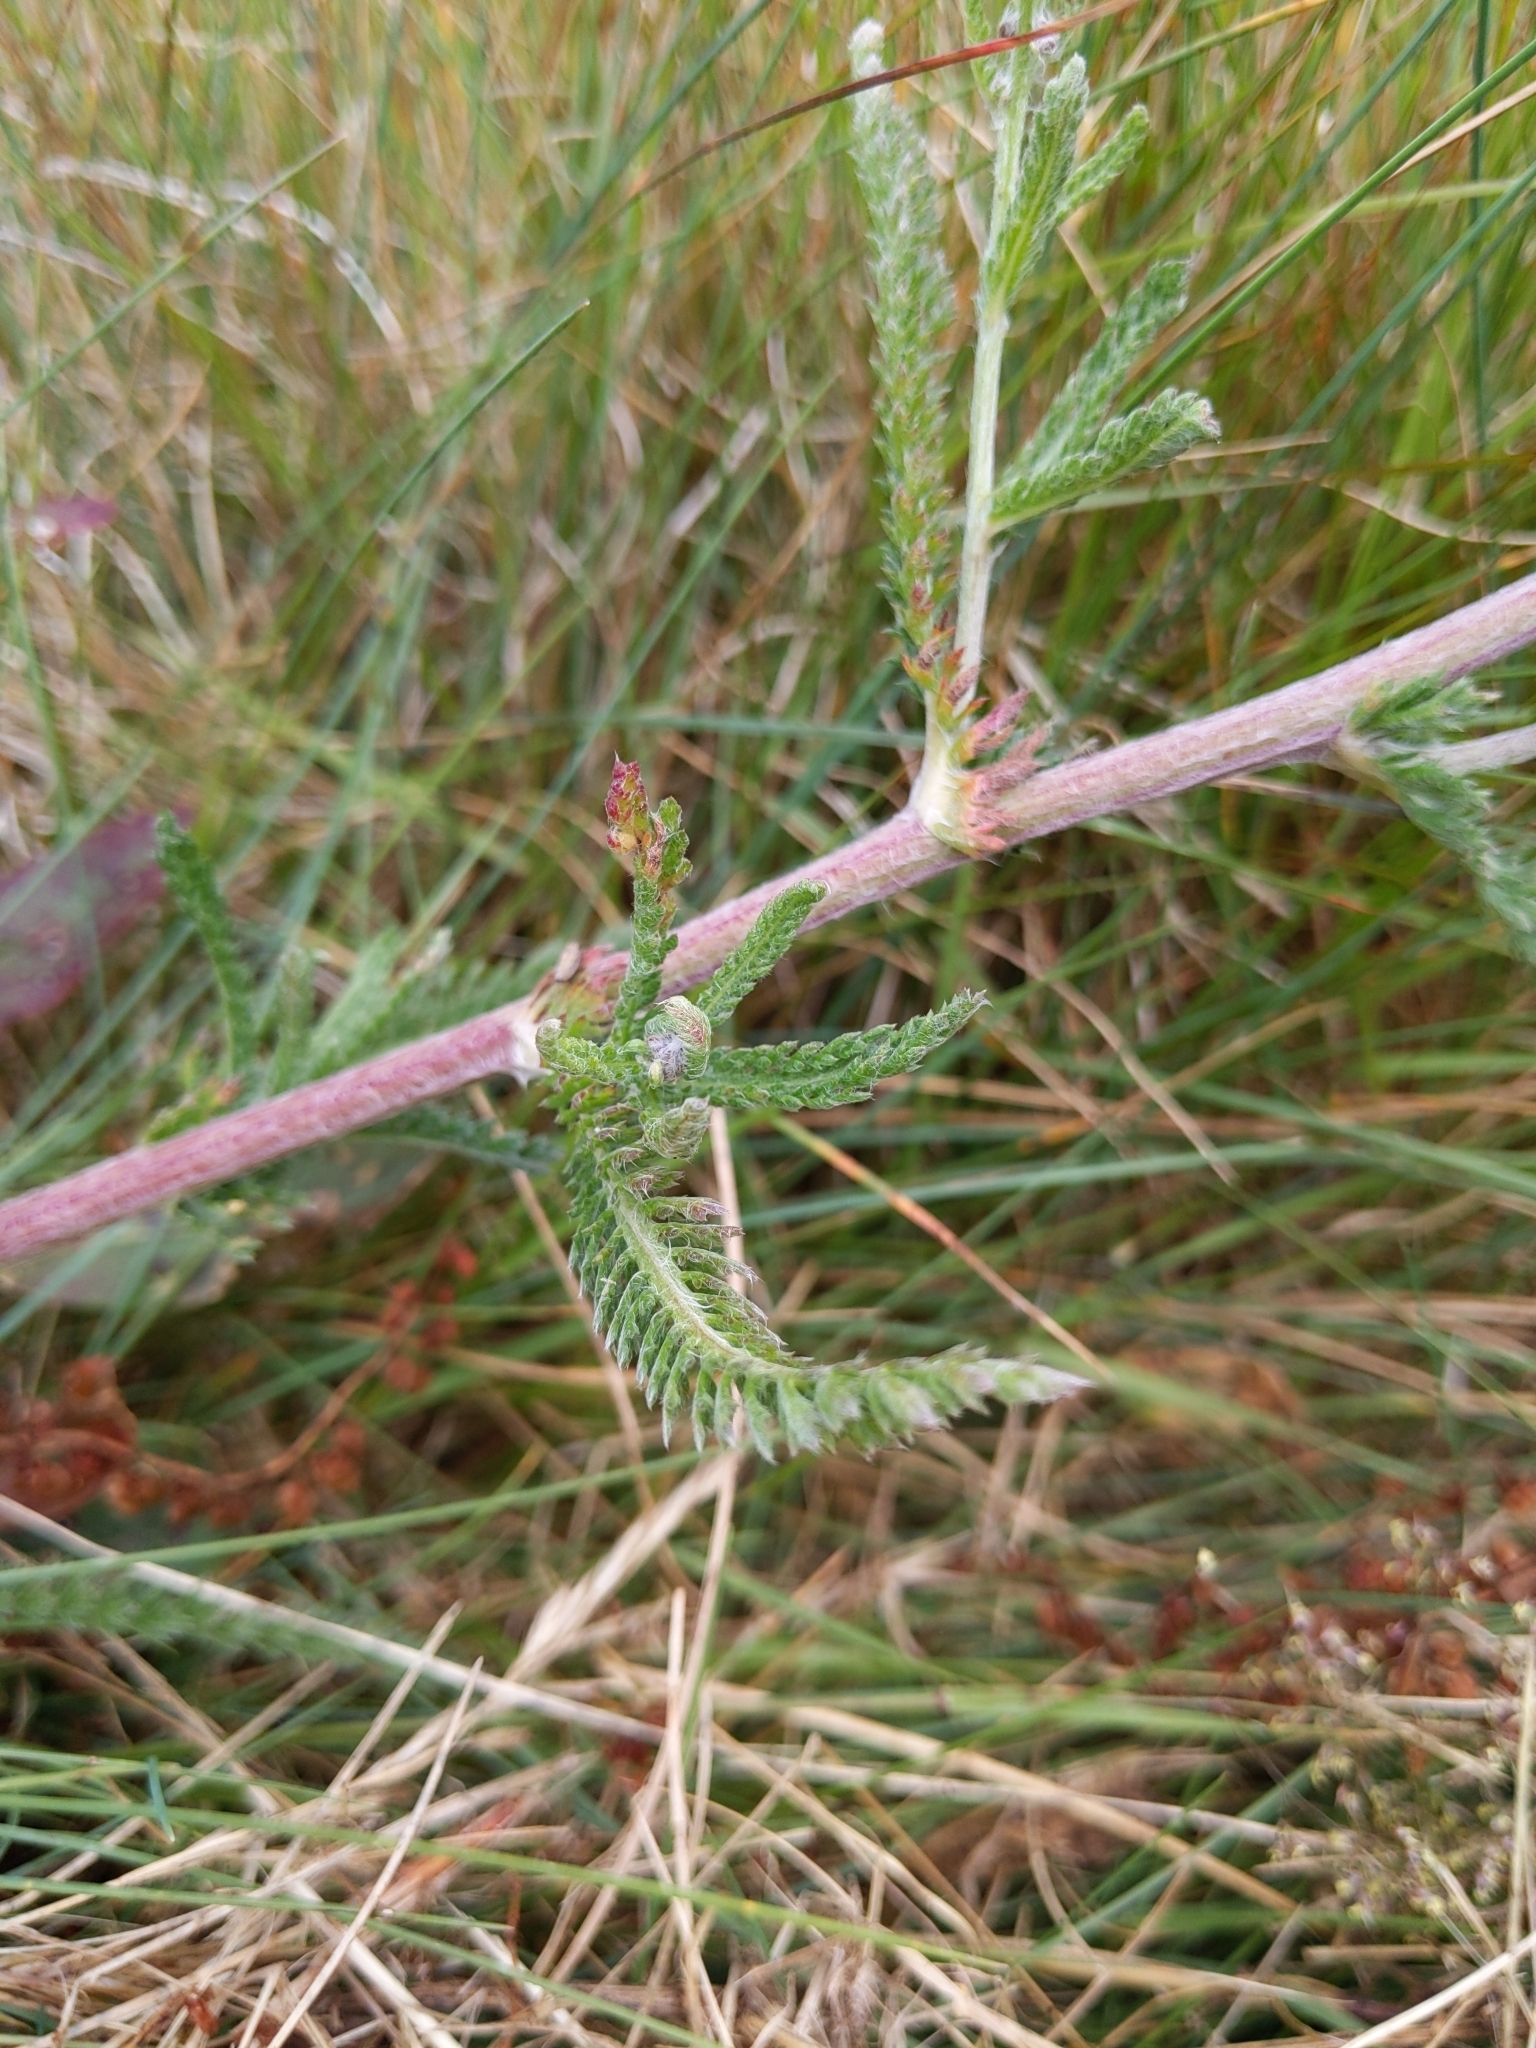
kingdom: Plantae
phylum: Tracheophyta
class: Magnoliopsida
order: Asterales
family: Asteraceae
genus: Achillea
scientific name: Achillea millefolium
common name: Yarrow
